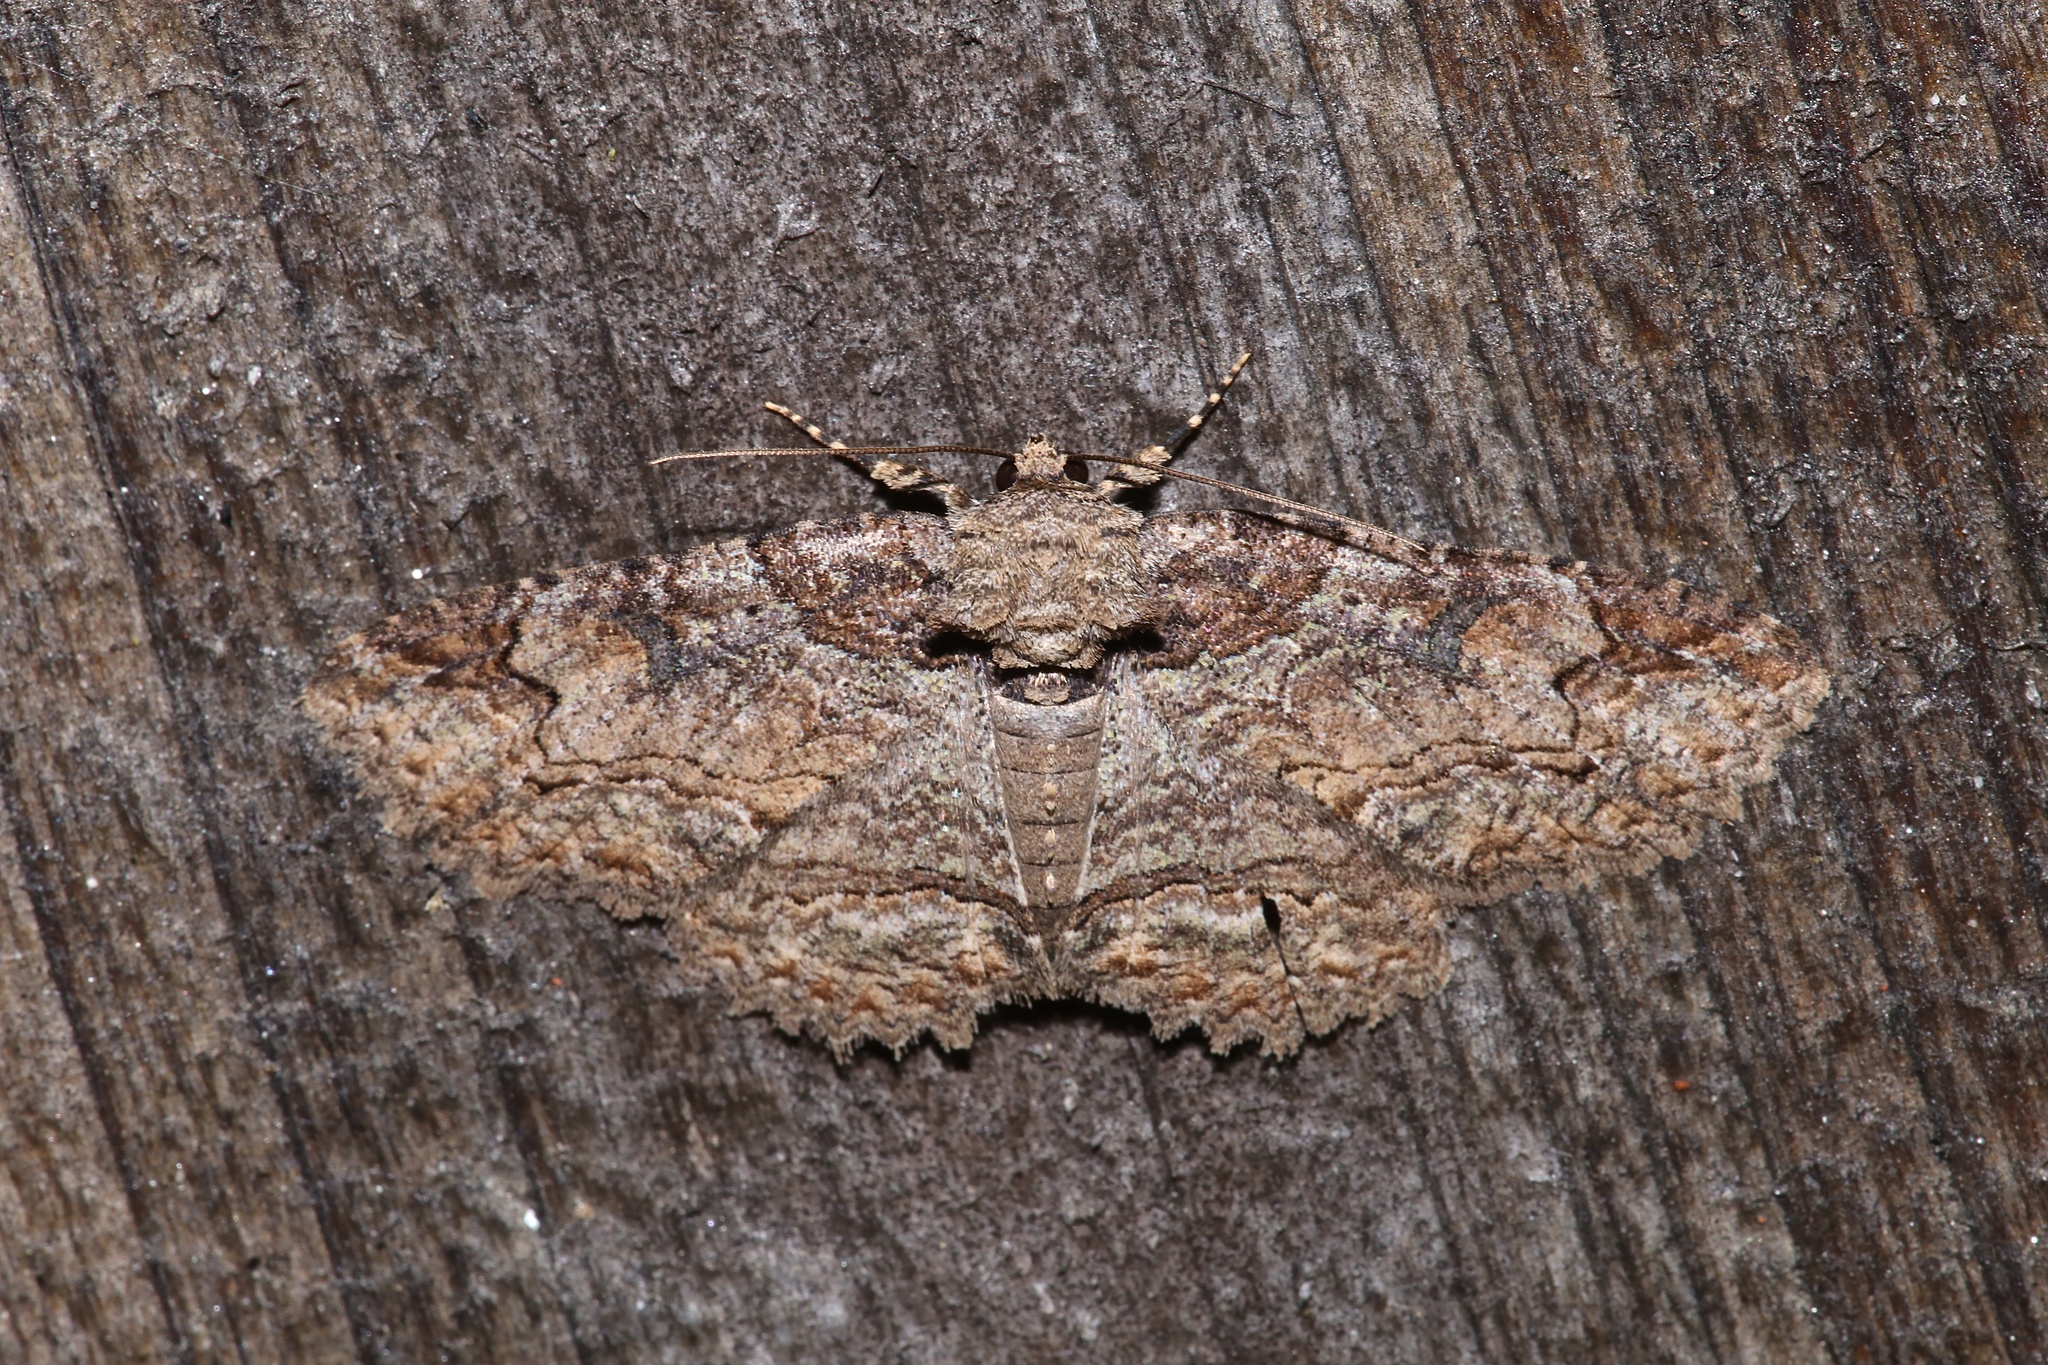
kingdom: Animalia
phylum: Arthropoda
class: Insecta
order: Lepidoptera
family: Erebidae
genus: Zale
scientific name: Zale galbanata
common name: Maple zale
